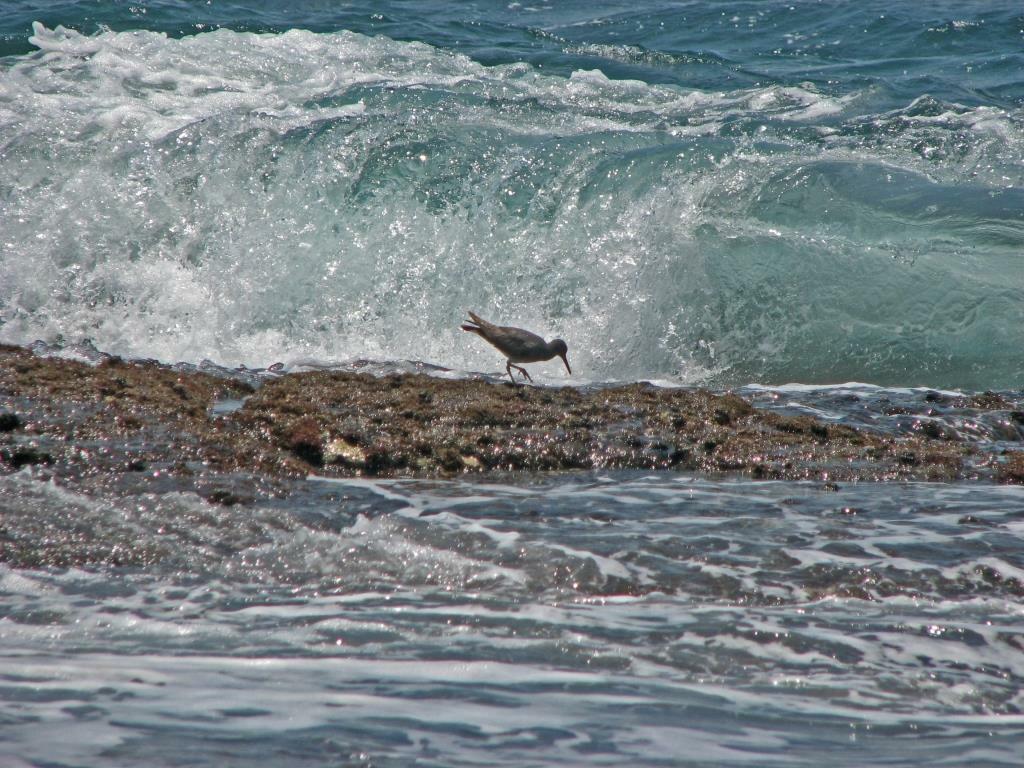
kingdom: Animalia
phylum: Chordata
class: Aves
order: Charadriiformes
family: Scolopacidae
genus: Tringa
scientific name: Tringa incana
